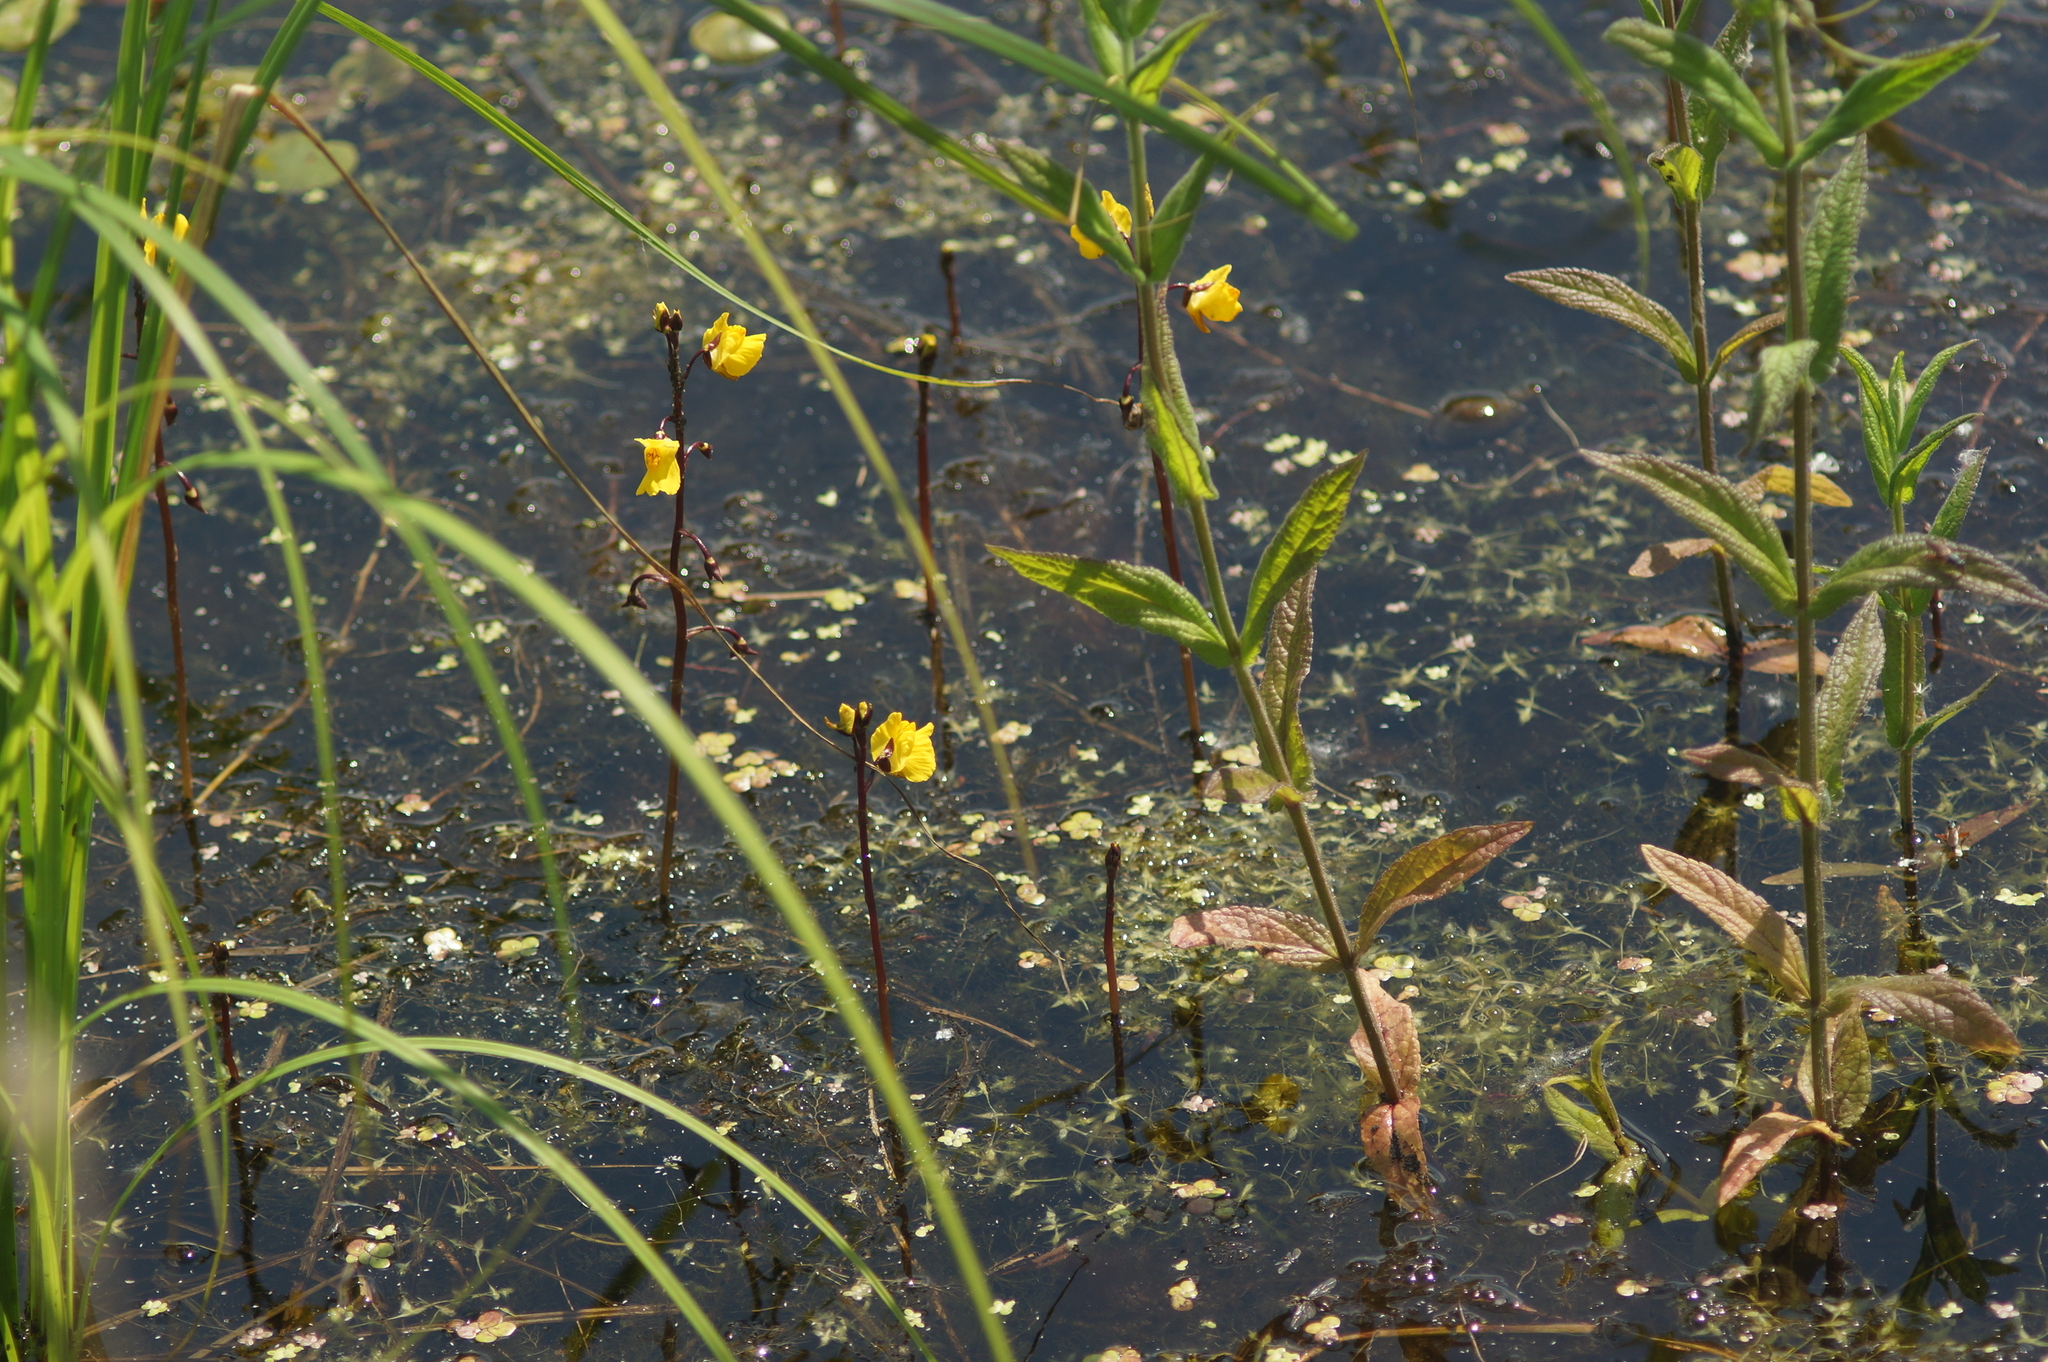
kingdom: Plantae
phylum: Tracheophyta
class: Magnoliopsida
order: Lamiales
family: Lentibulariaceae
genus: Utricularia
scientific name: Utricularia vulgaris
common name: Greater bladderwort
